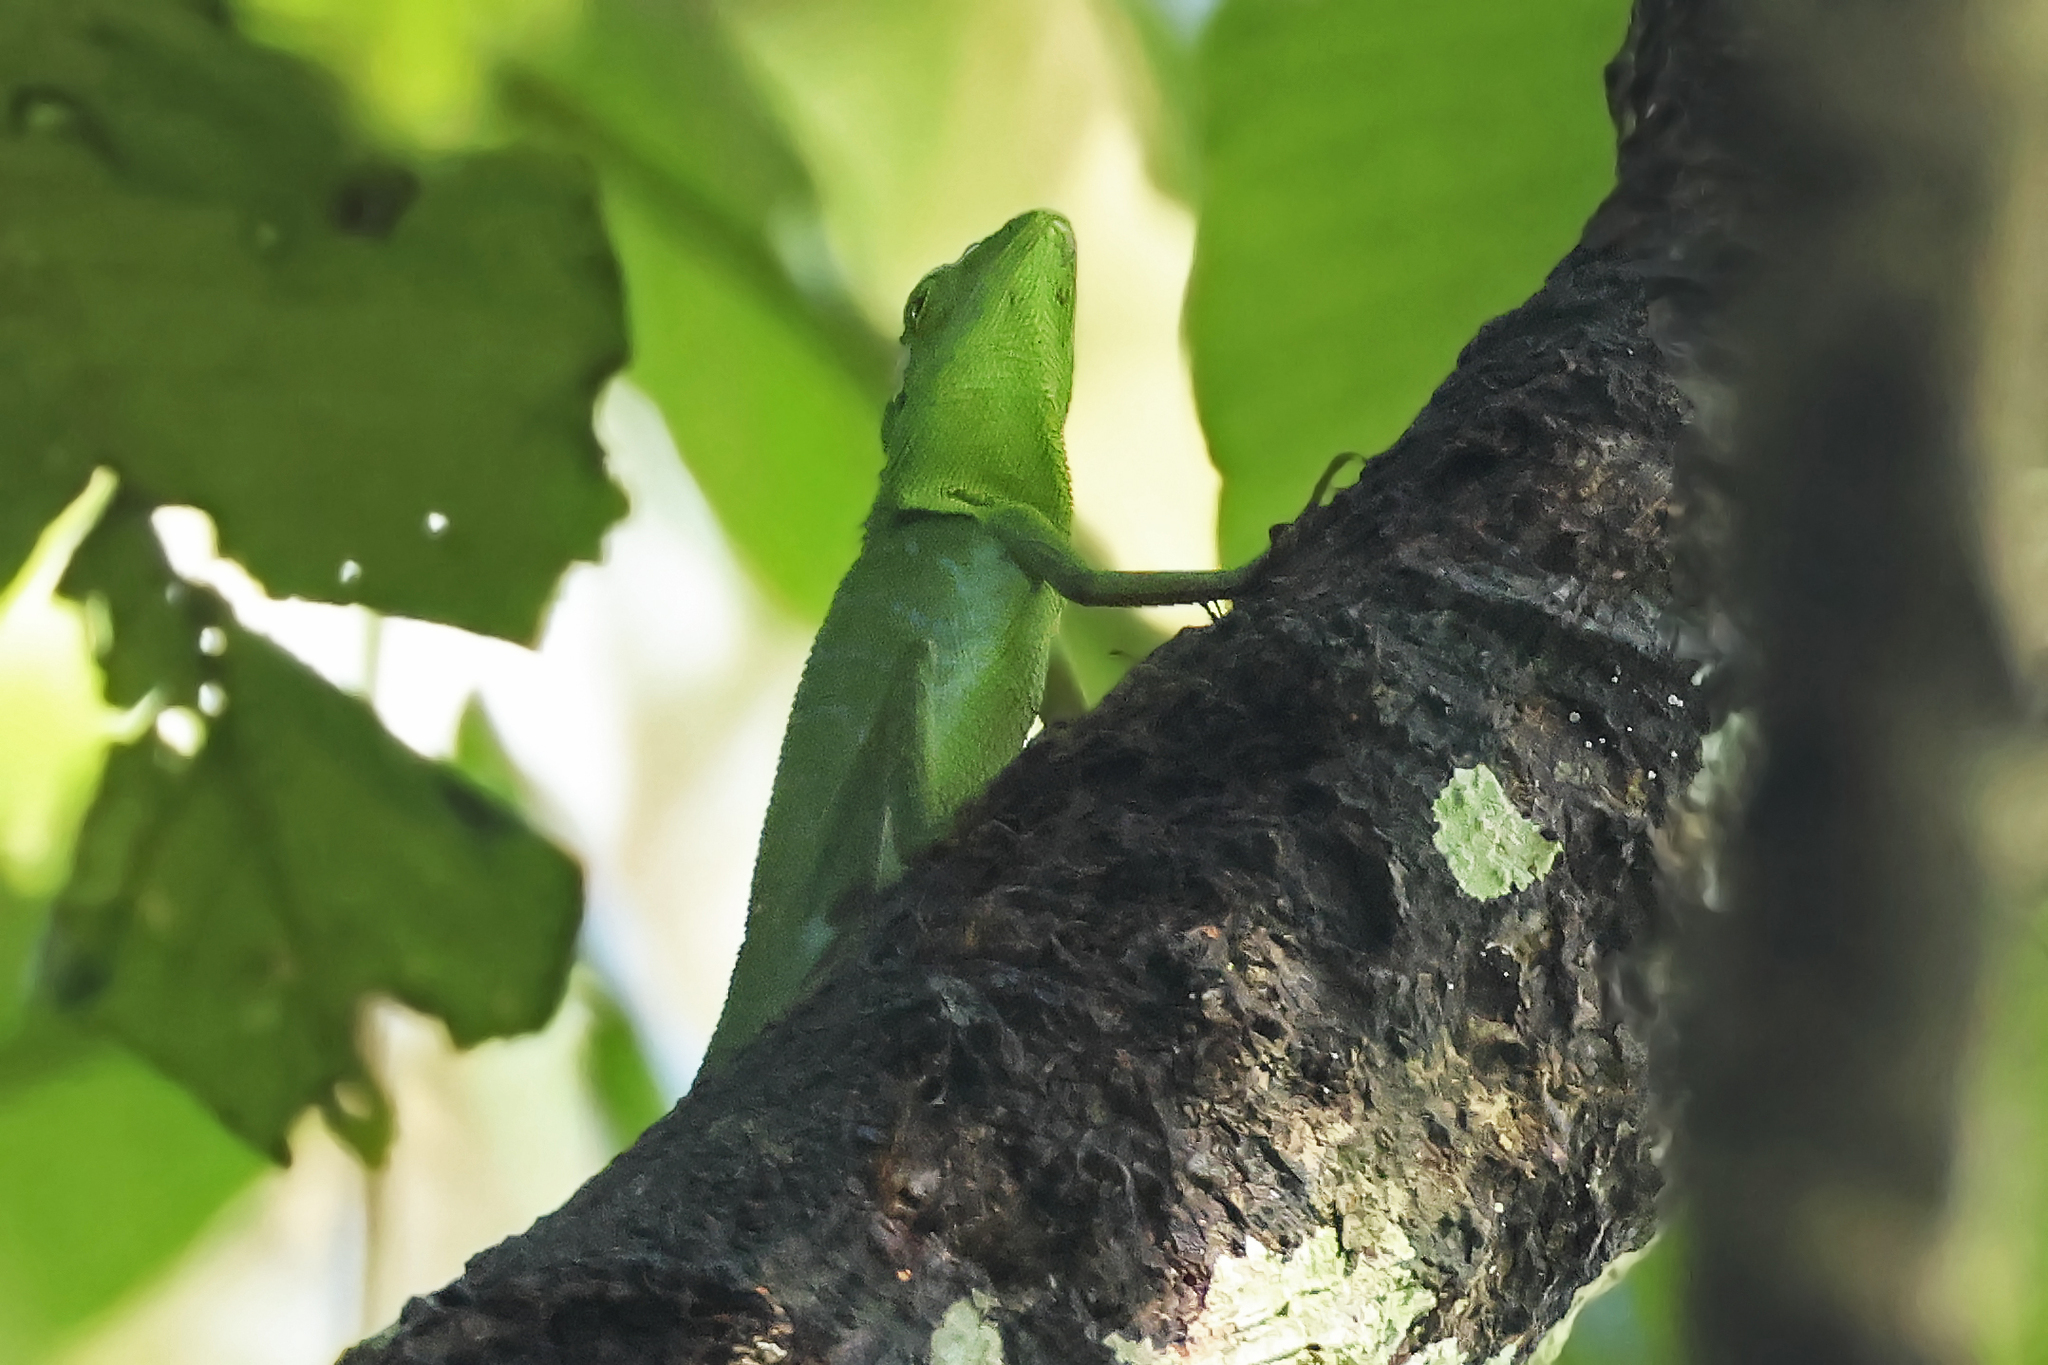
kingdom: Animalia
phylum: Chordata
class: Squamata
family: Agamidae
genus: Bronchocela
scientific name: Bronchocela cristatella
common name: Green crested lizard
